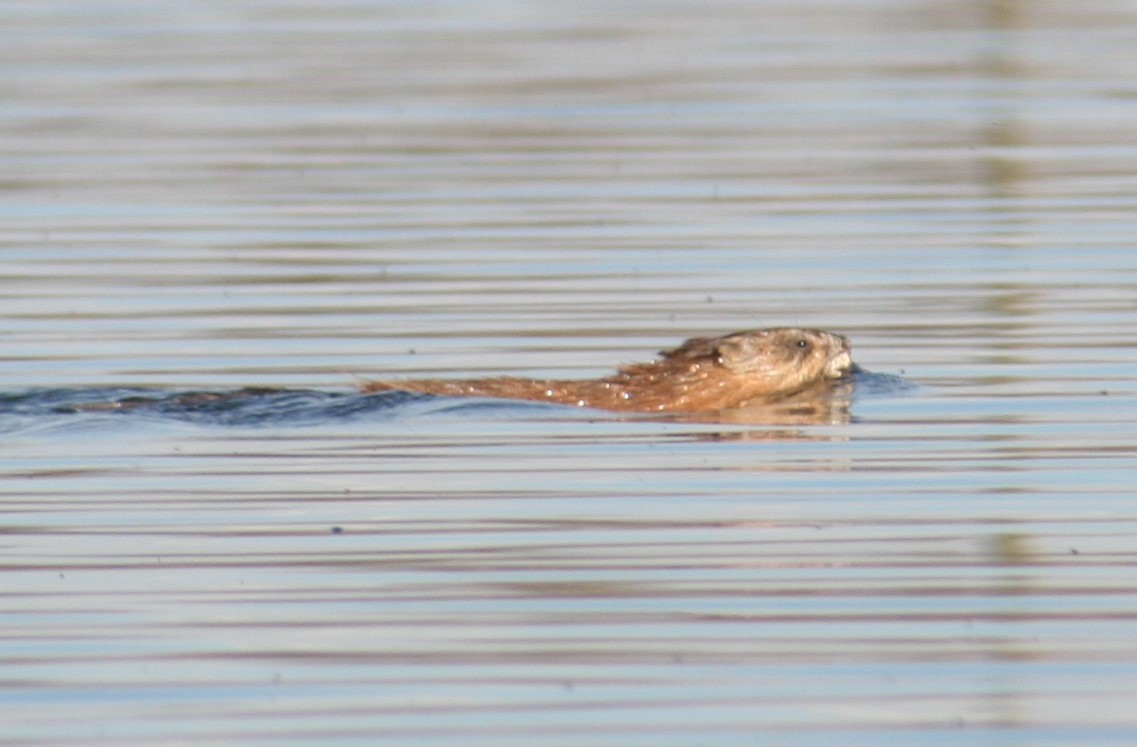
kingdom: Animalia
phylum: Chordata
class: Mammalia
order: Rodentia
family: Cricetidae
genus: Ondatra
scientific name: Ondatra zibethicus
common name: Muskrat
